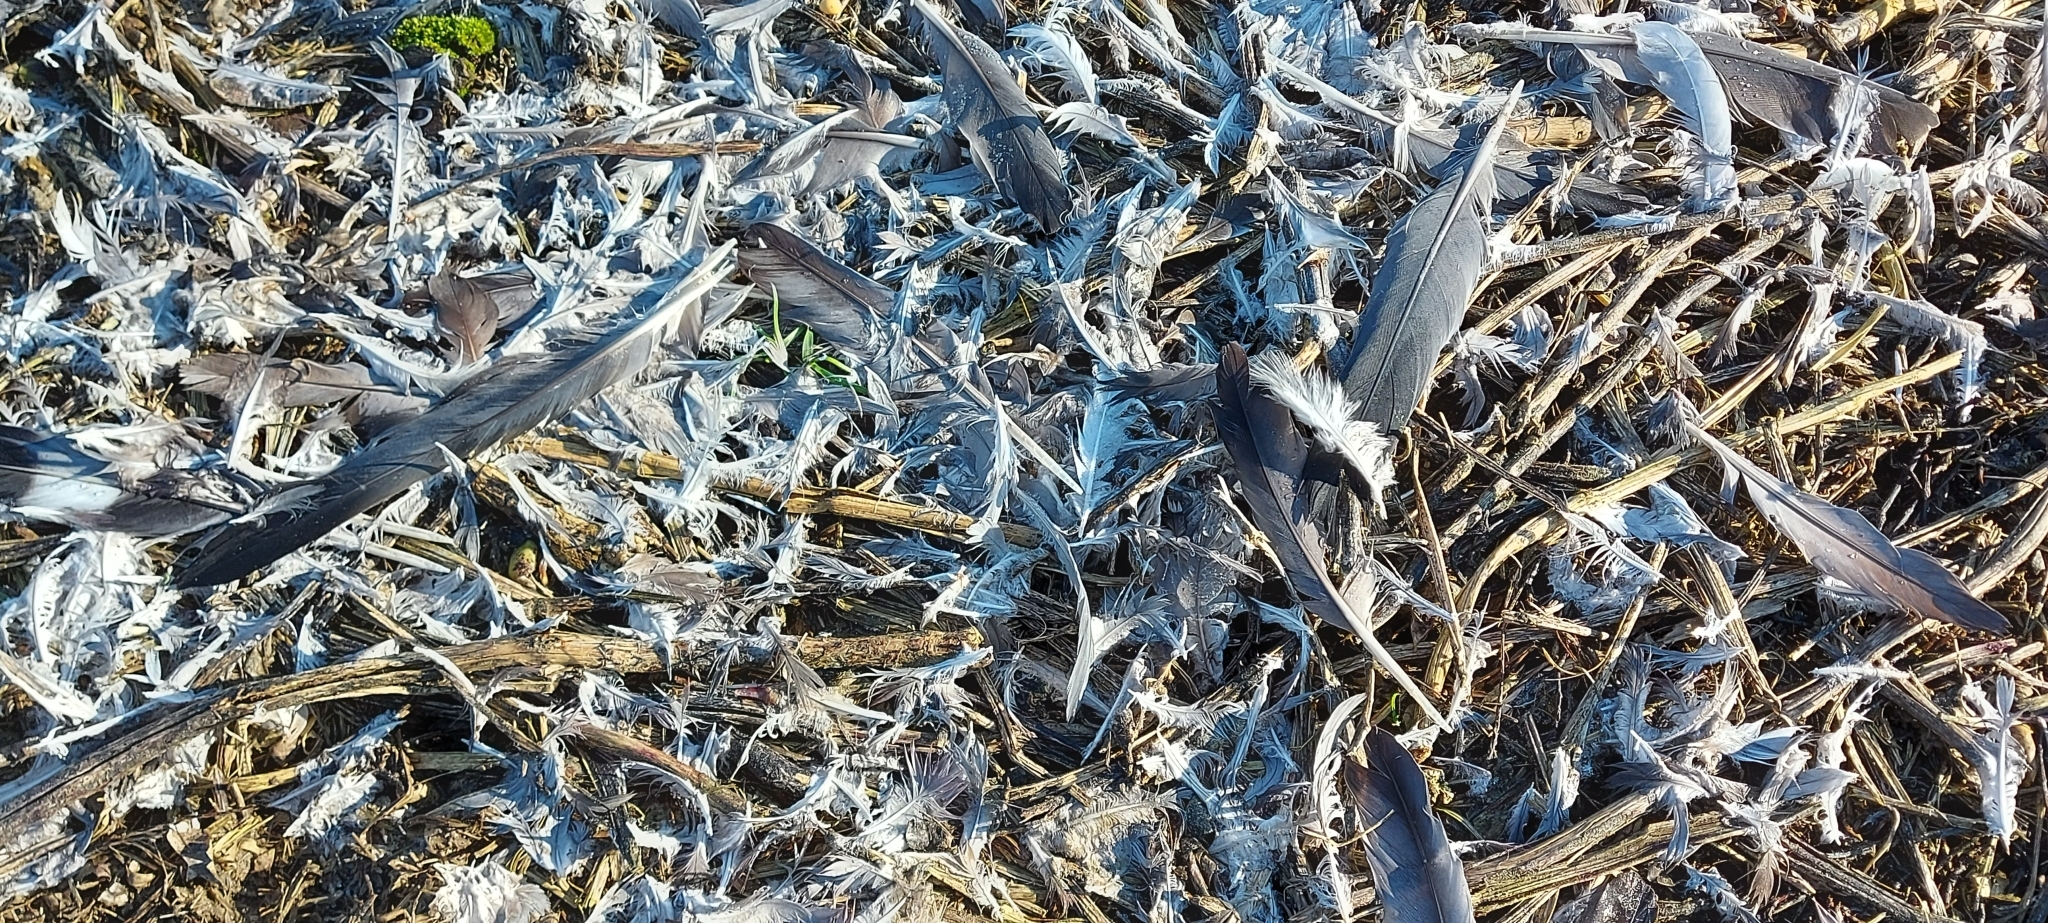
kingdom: Animalia
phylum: Chordata
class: Aves
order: Columbiformes
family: Columbidae
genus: Columba
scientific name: Columba palumbus
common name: Common wood pigeon
